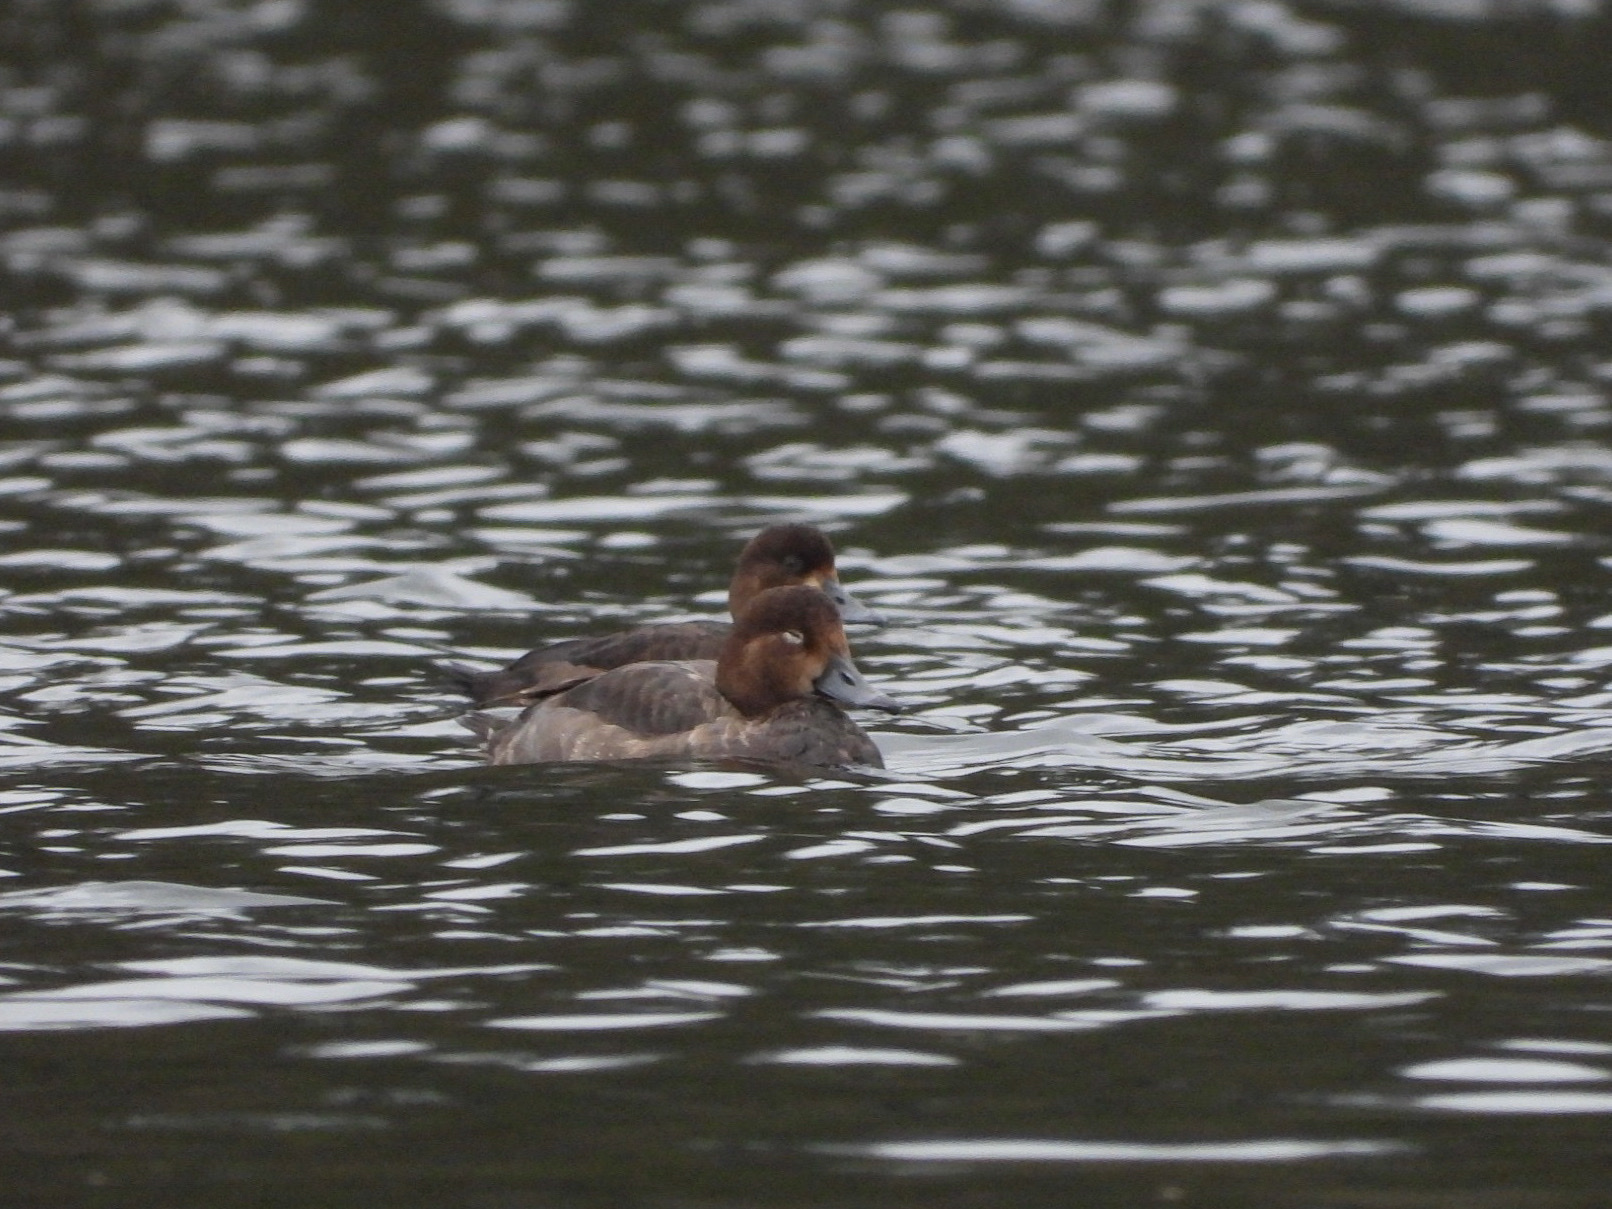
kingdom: Animalia
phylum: Chordata
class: Aves
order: Anseriformes
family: Anatidae
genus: Aythya
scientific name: Aythya americana
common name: Redhead
